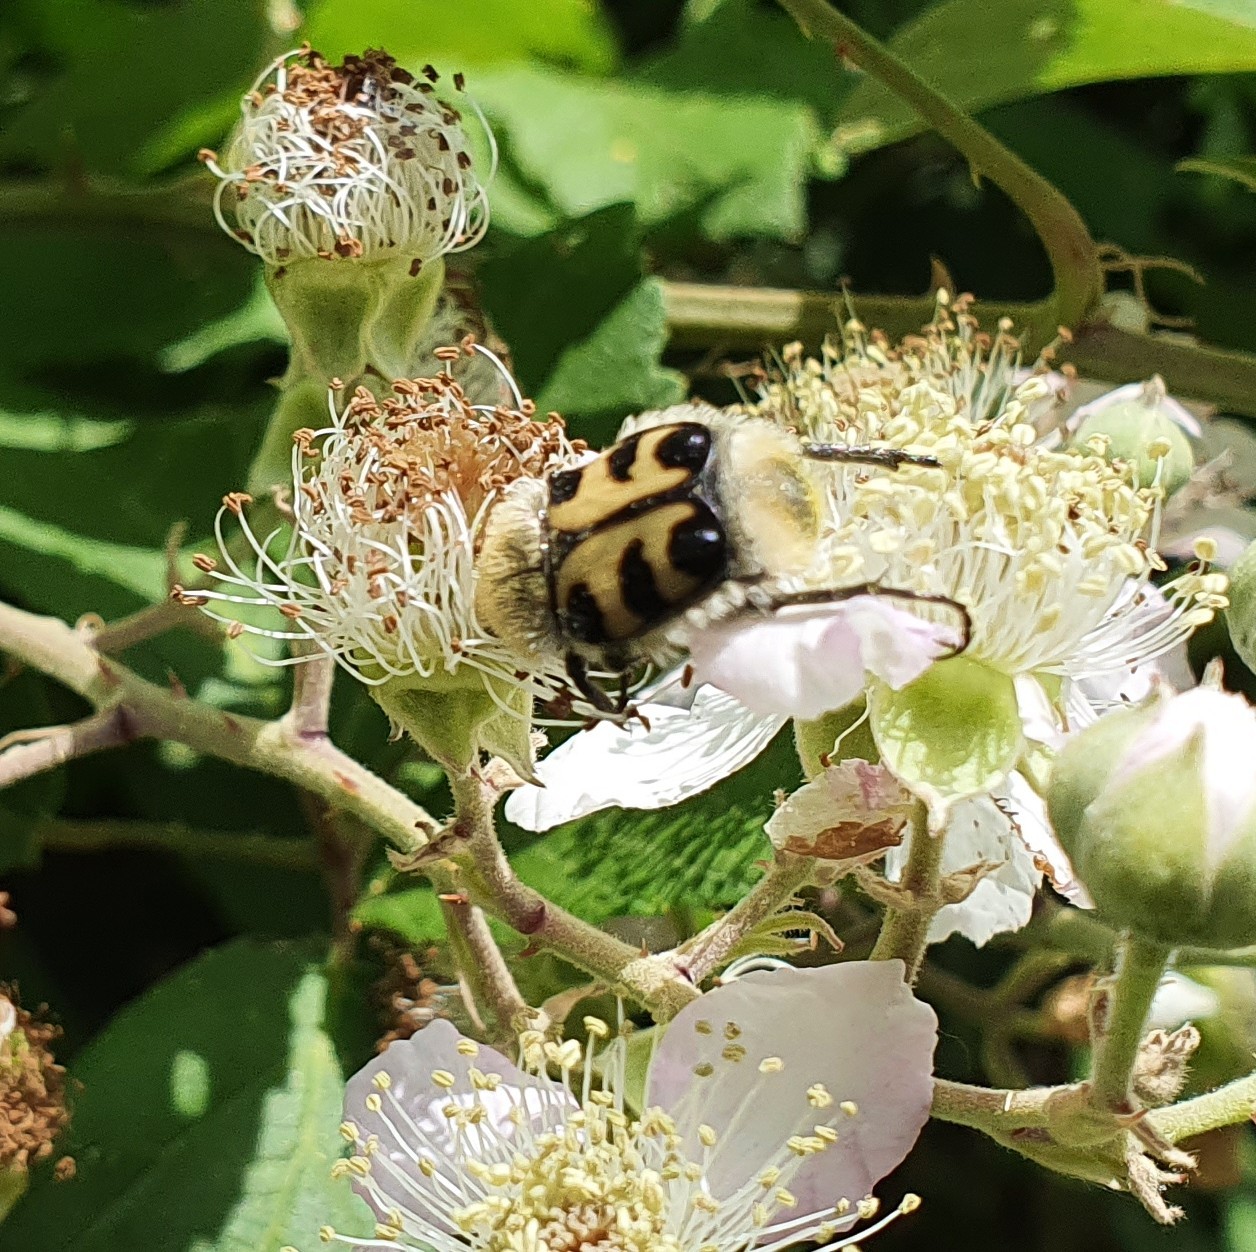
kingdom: Animalia
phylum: Arthropoda
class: Insecta
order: Coleoptera
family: Scarabaeidae
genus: Trichius
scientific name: Trichius gallicus
